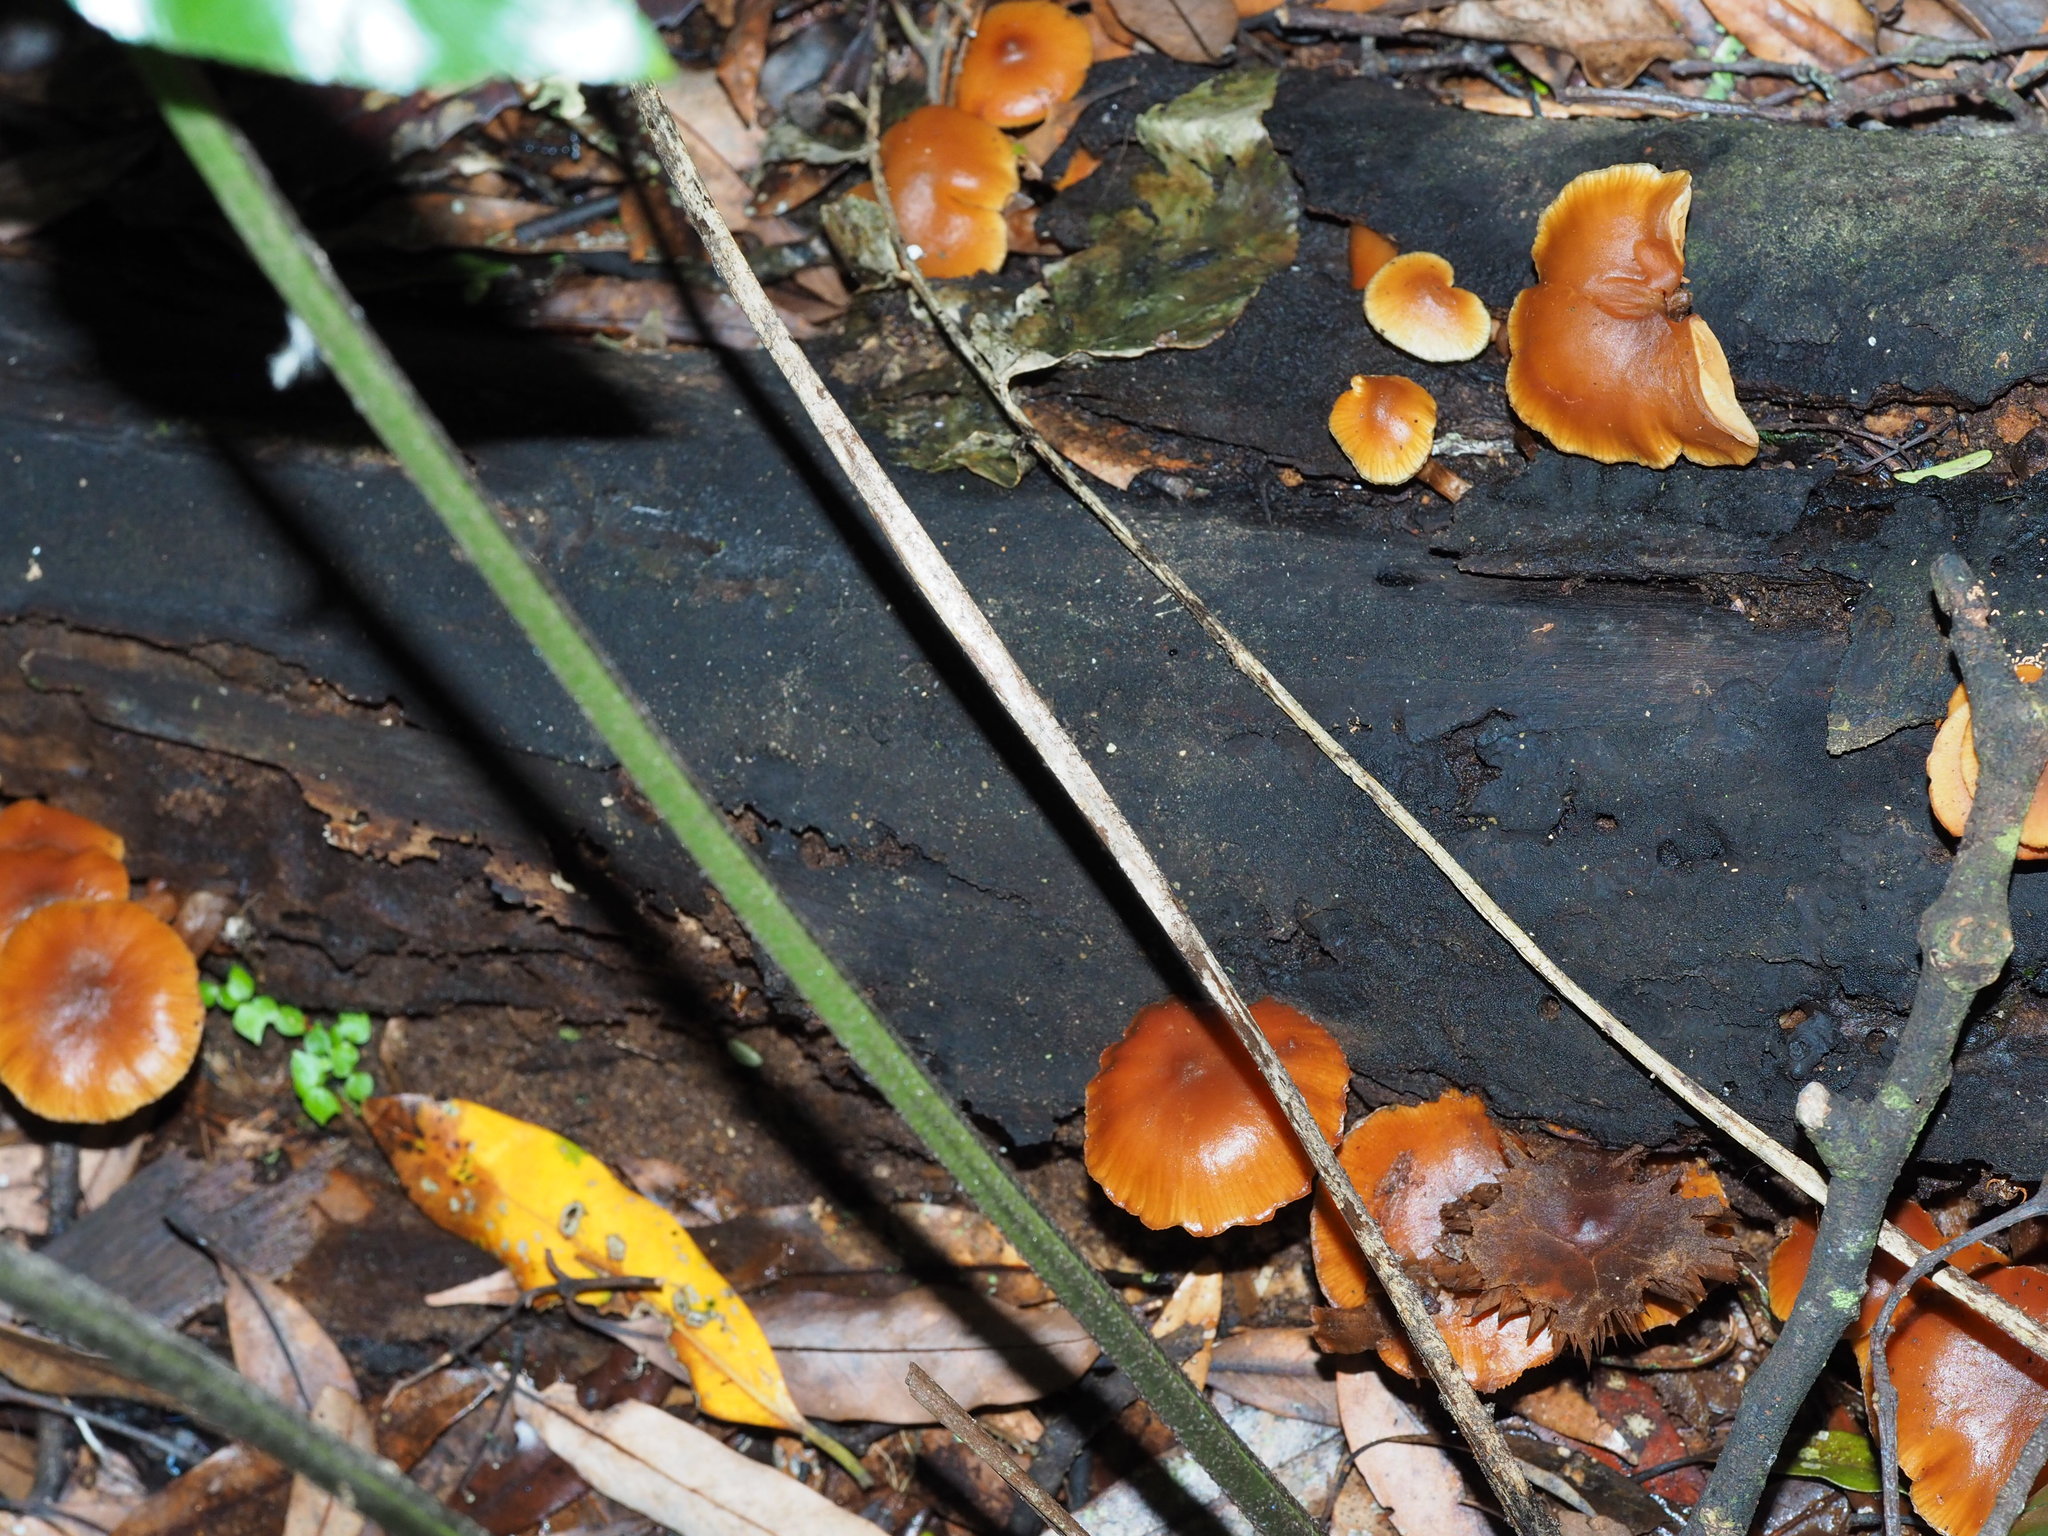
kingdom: Fungi
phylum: Basidiomycota
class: Agaricomycetes
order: Agaricales
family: Hymenogastraceae
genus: Galerina
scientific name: Galerina patagonica
